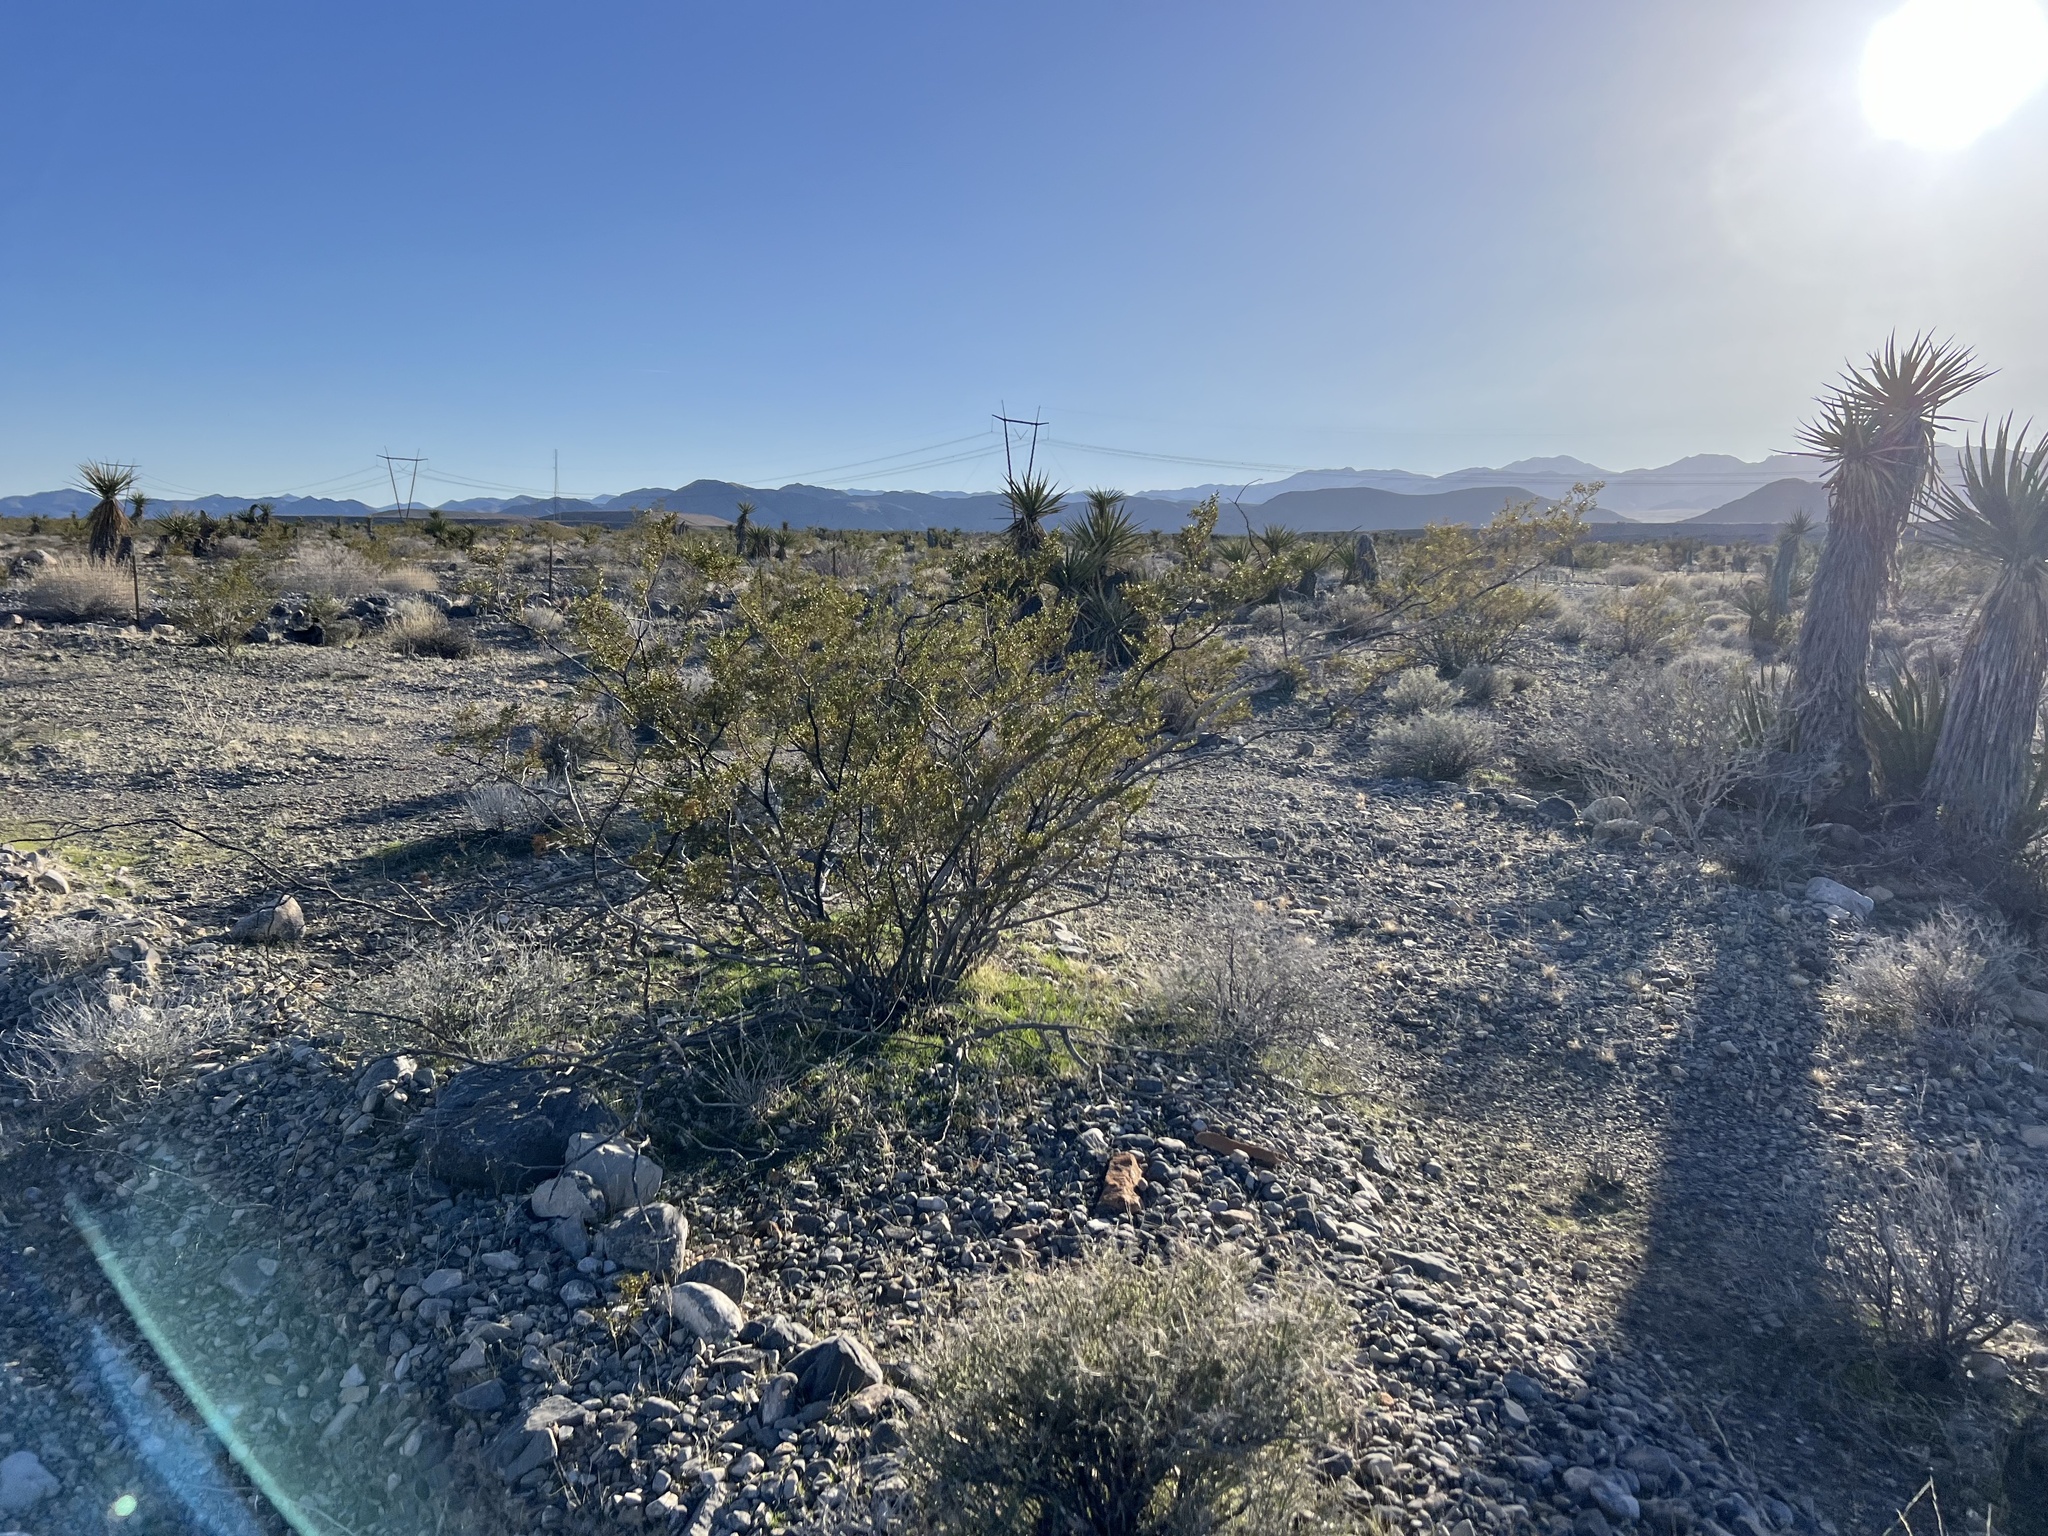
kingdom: Plantae
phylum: Tracheophyta
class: Magnoliopsida
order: Zygophyllales
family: Zygophyllaceae
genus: Larrea
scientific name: Larrea tridentata
